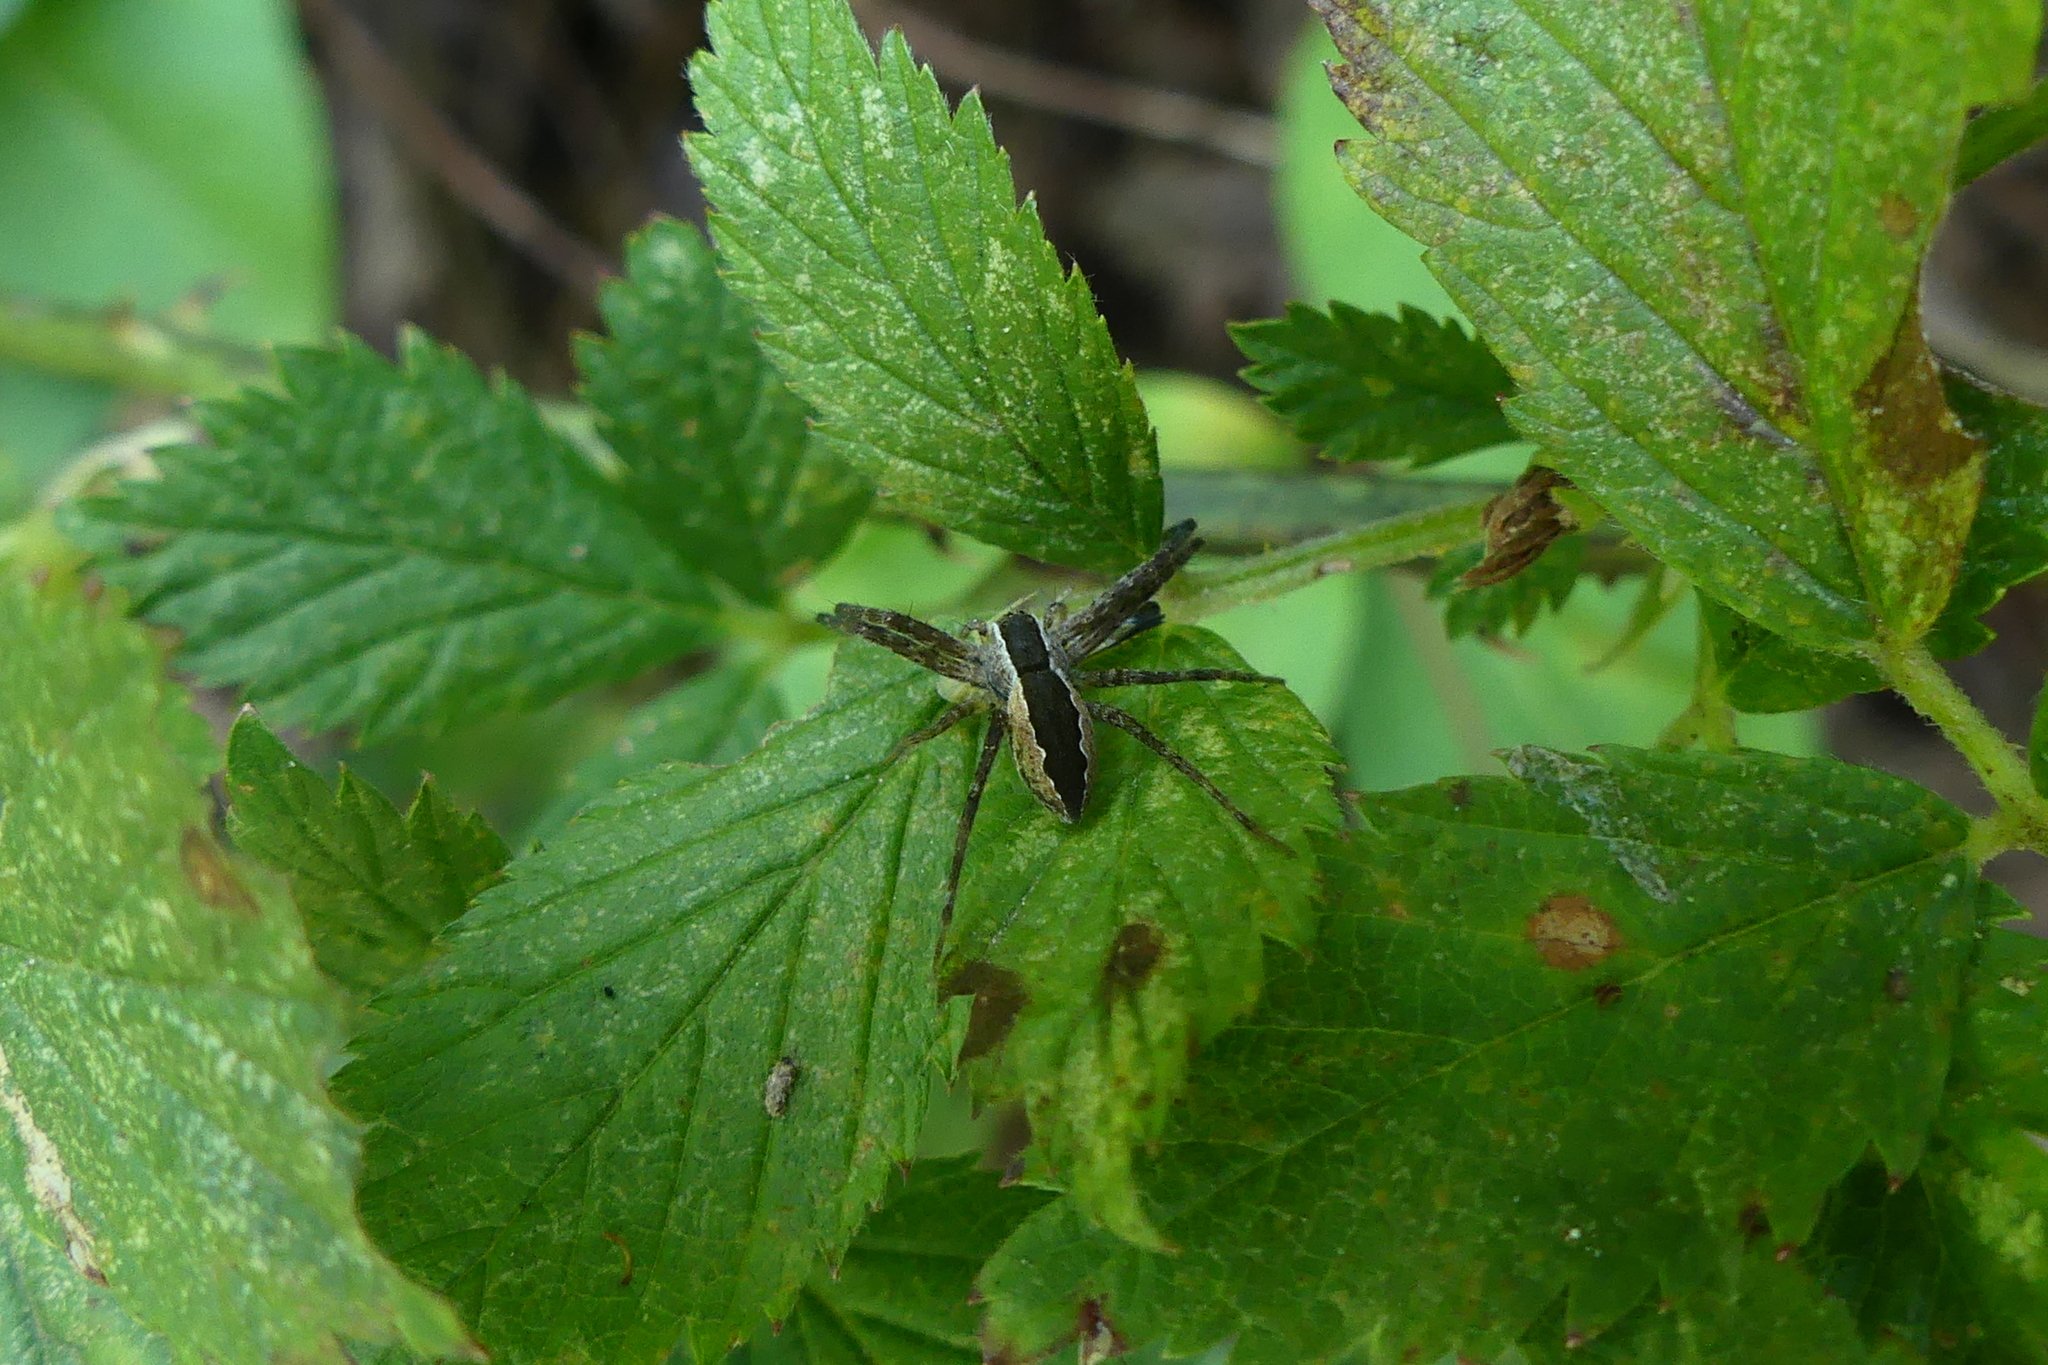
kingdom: Animalia
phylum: Arthropoda
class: Arachnida
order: Araneae
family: Pisauridae
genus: Pisaurina
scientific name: Pisaurina mira
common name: American nursery web spider
